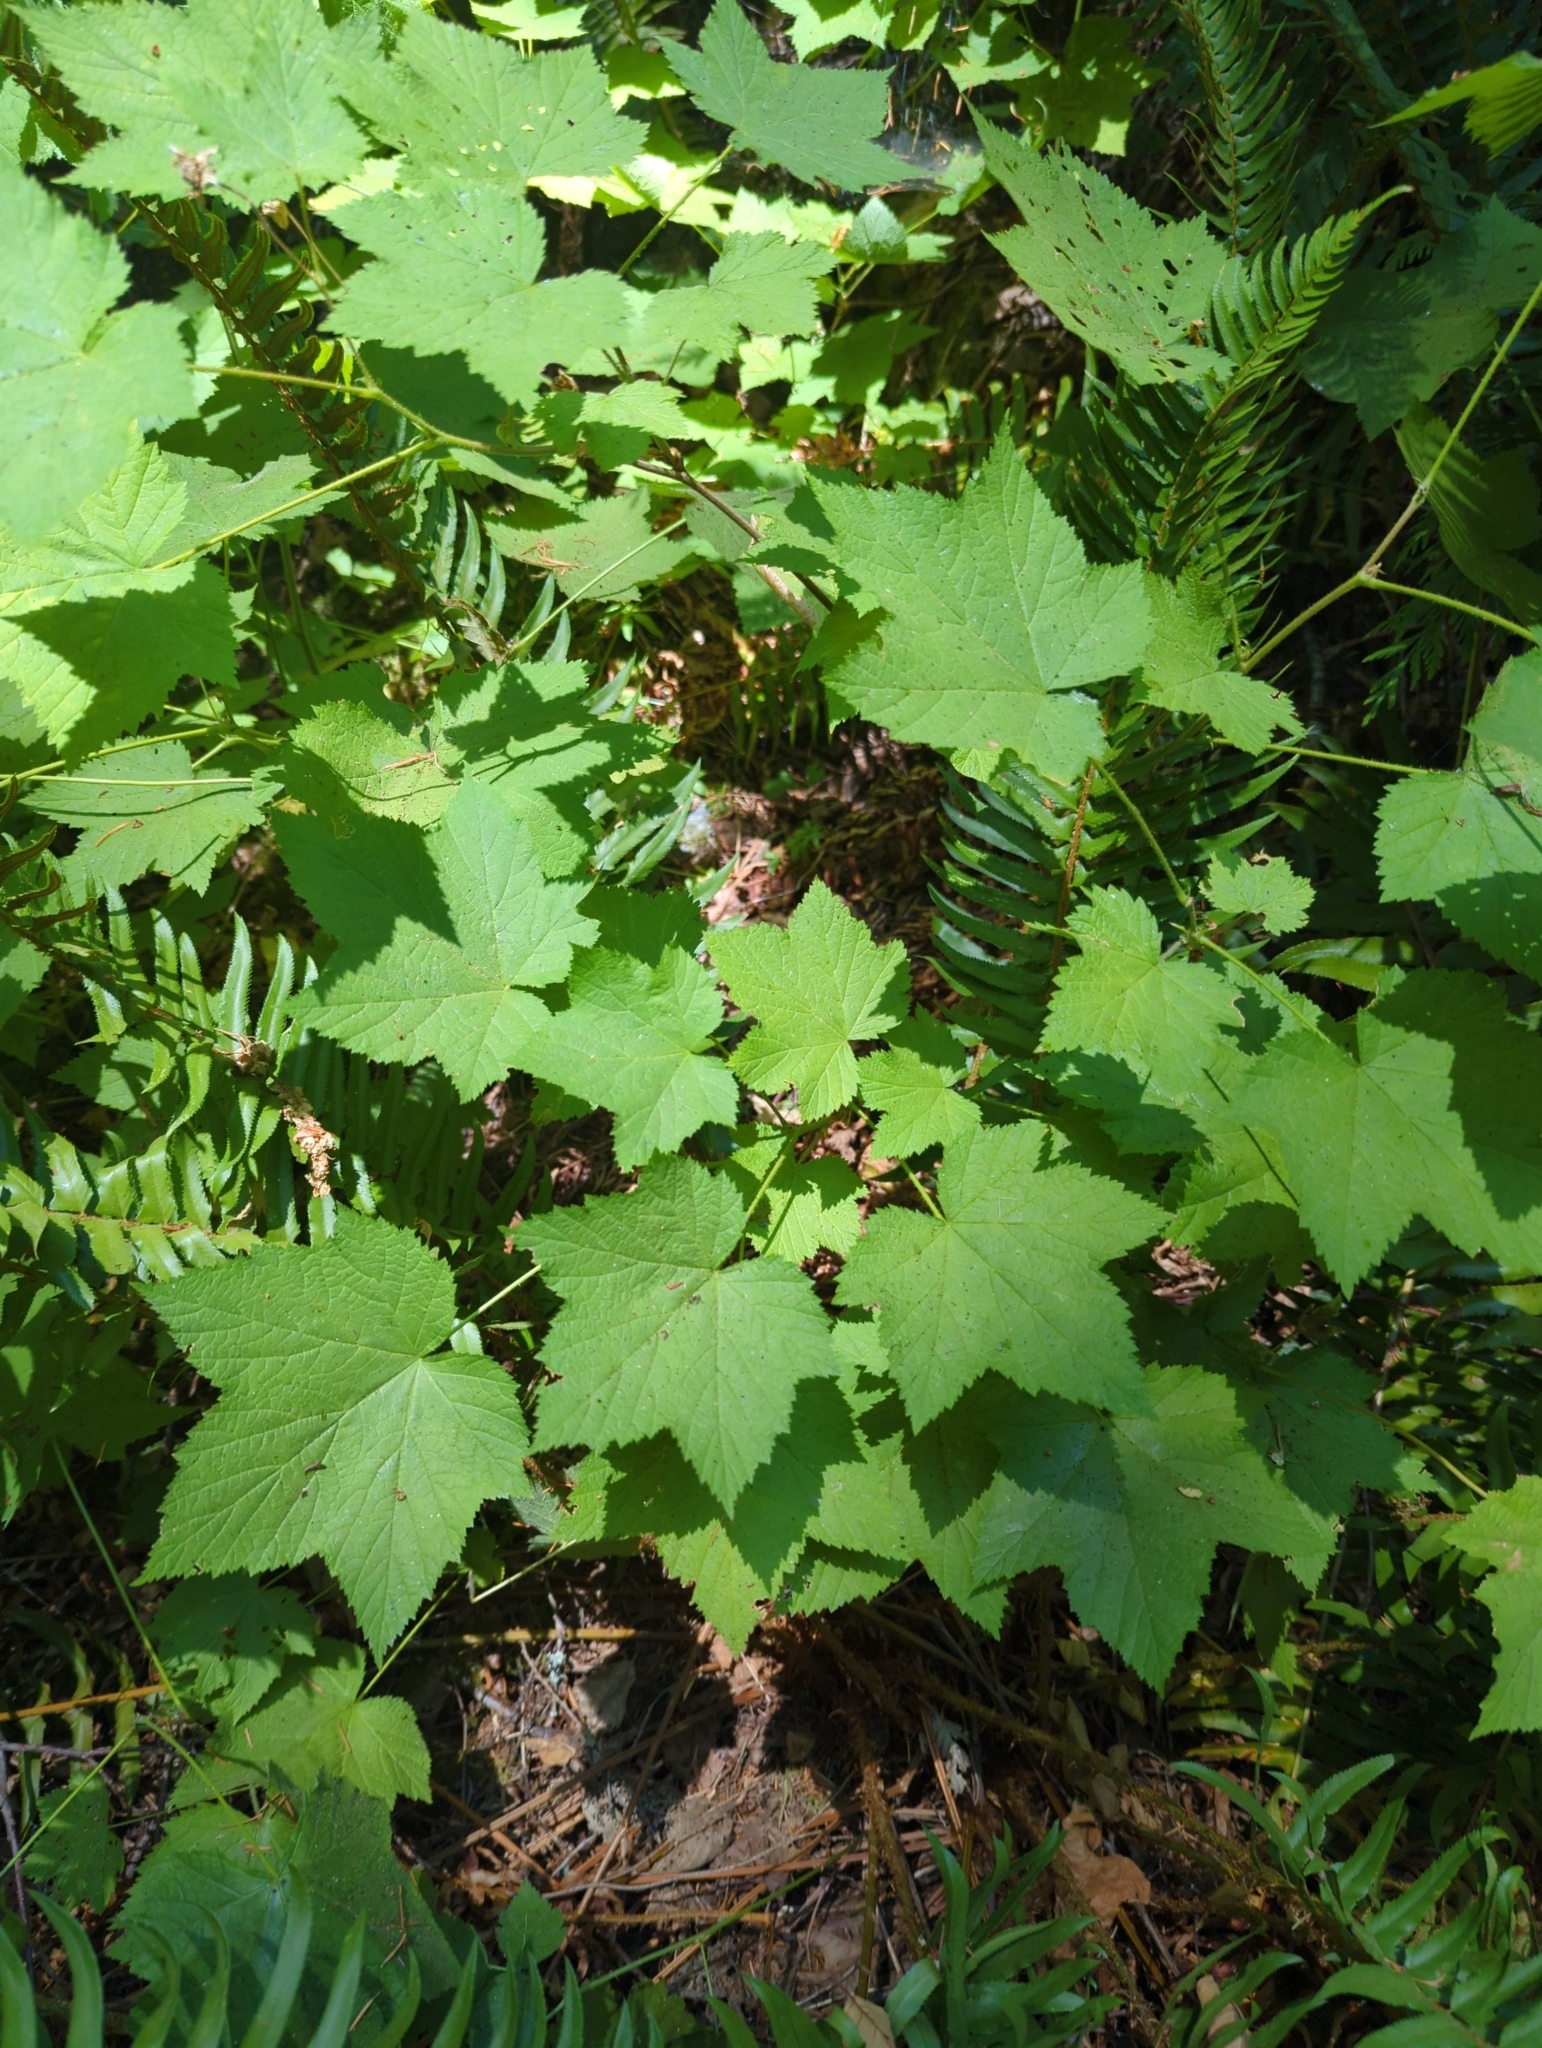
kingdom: Plantae
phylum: Tracheophyta
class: Magnoliopsida
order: Rosales
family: Rosaceae
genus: Rubus
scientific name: Rubus parviflorus
